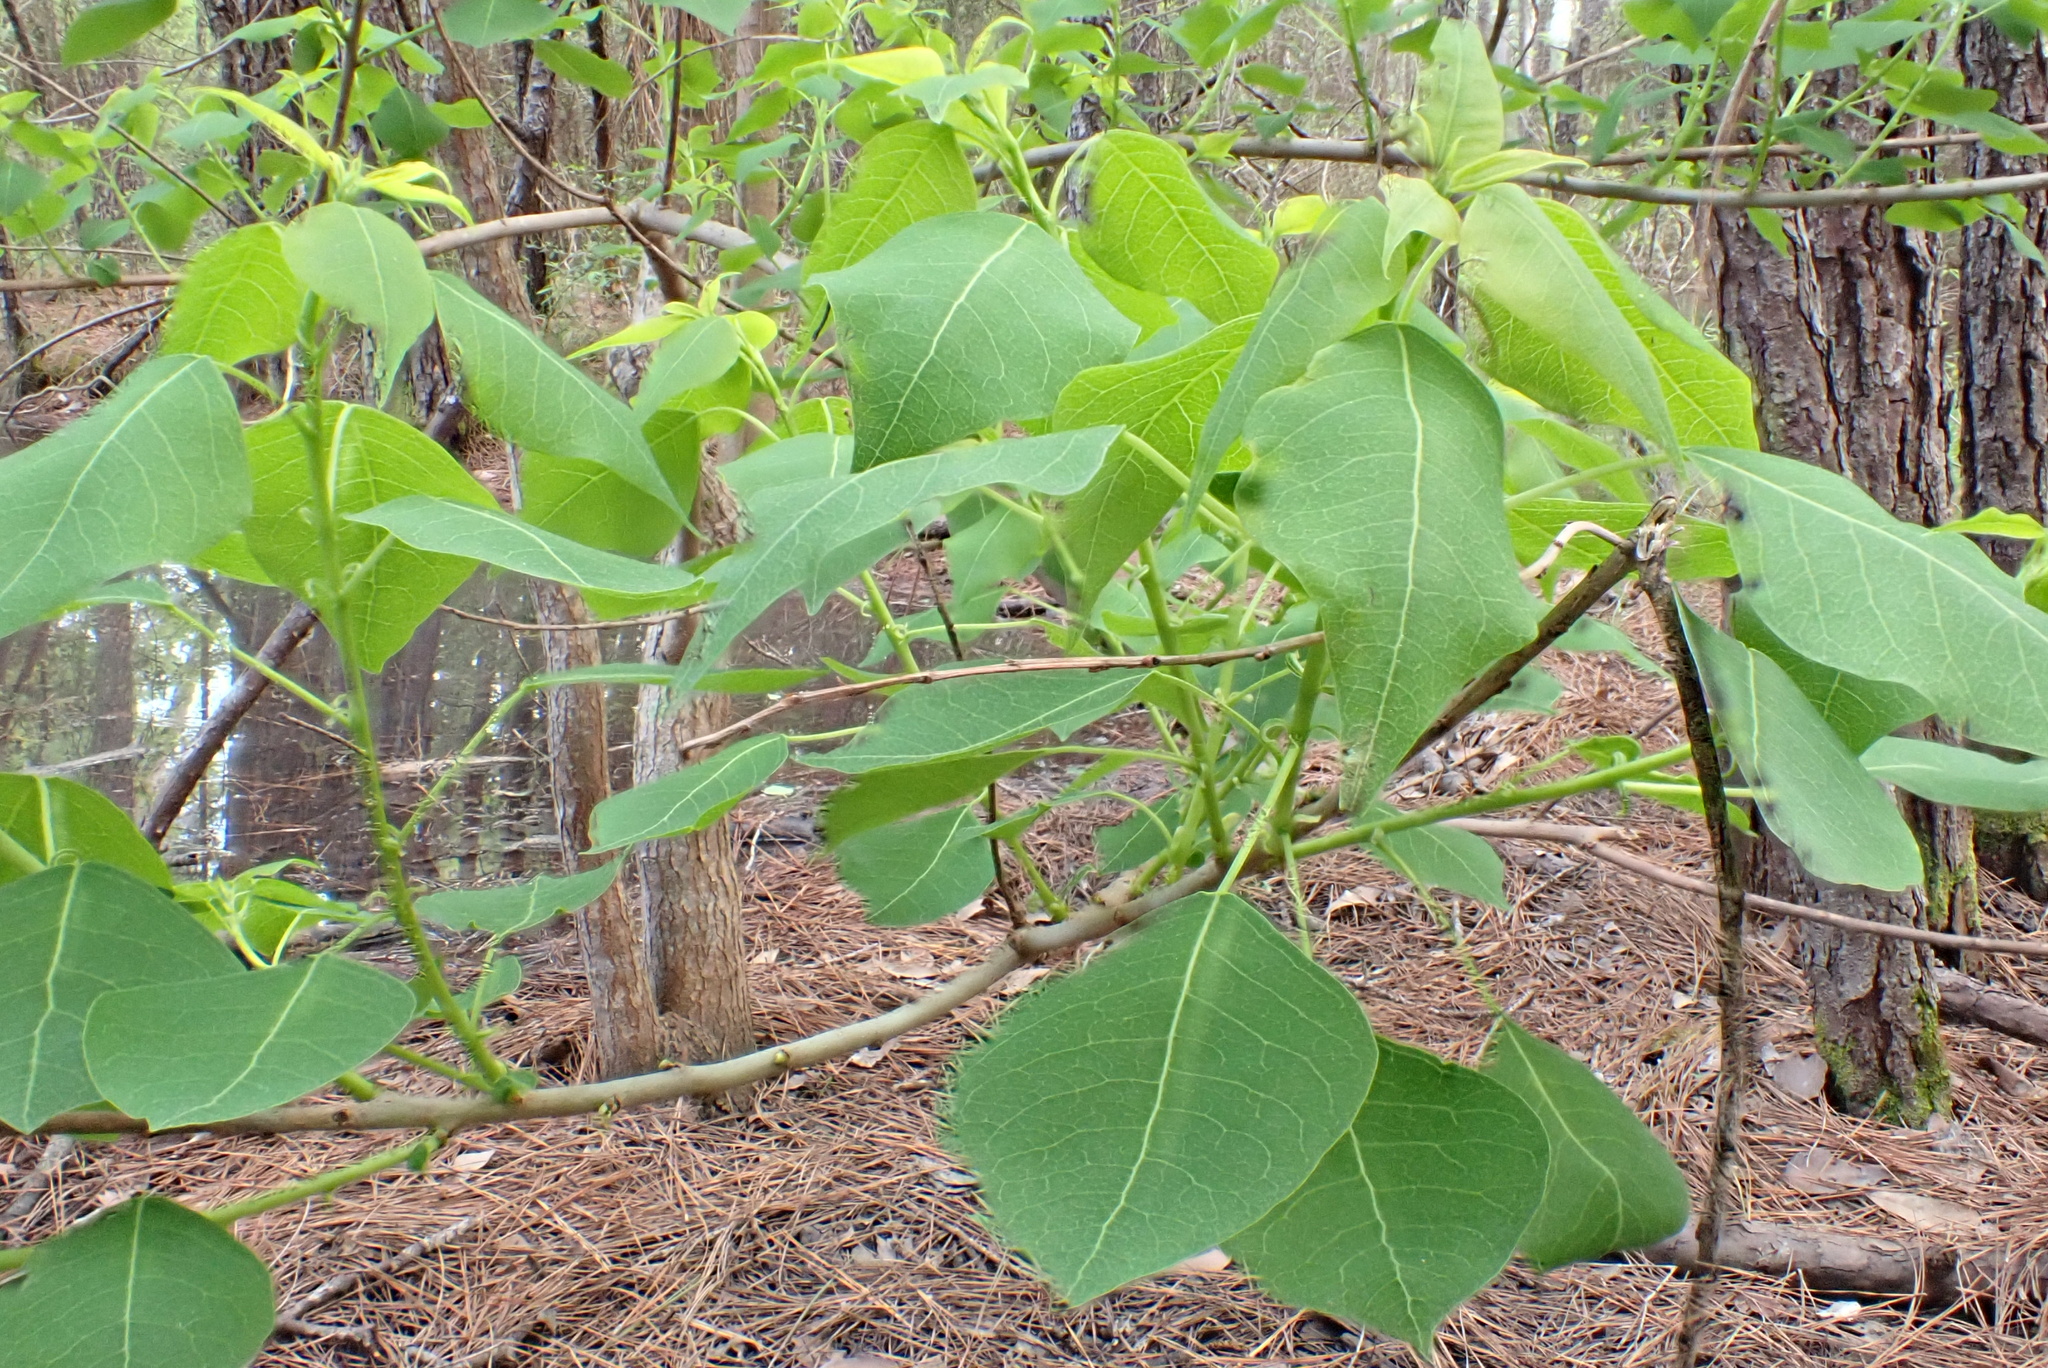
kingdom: Plantae
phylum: Tracheophyta
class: Magnoliopsida
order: Malpighiales
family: Euphorbiaceae
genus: Triadica
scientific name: Triadica sebifera
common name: Chinese tallow
